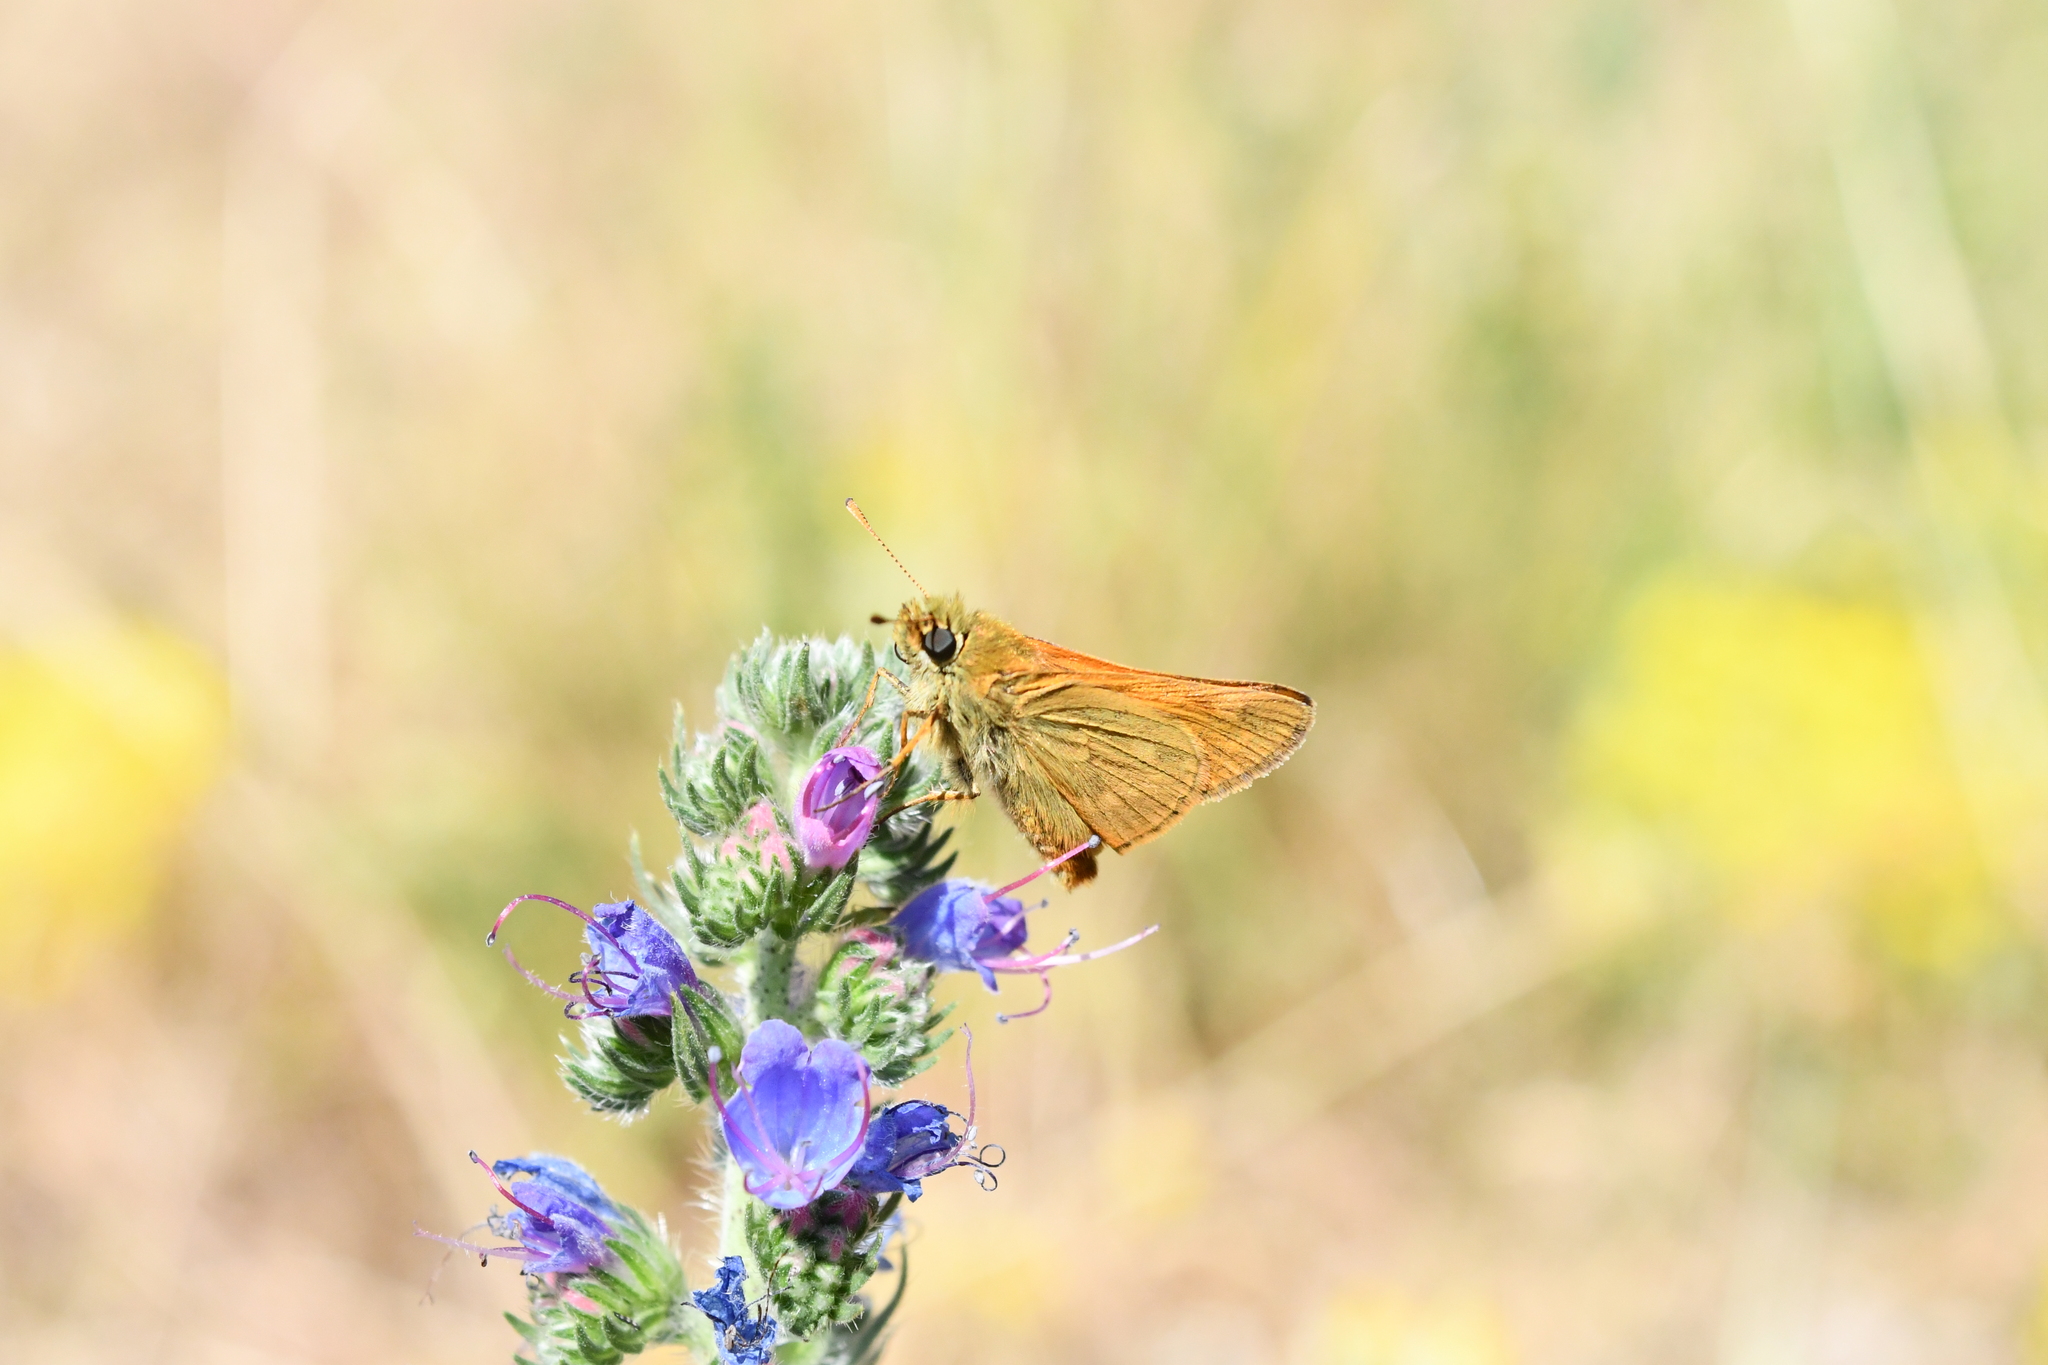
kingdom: Animalia
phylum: Arthropoda
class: Insecta
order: Lepidoptera
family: Hesperiidae
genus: Ochlodes
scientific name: Ochlodes venata
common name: Large skipper
